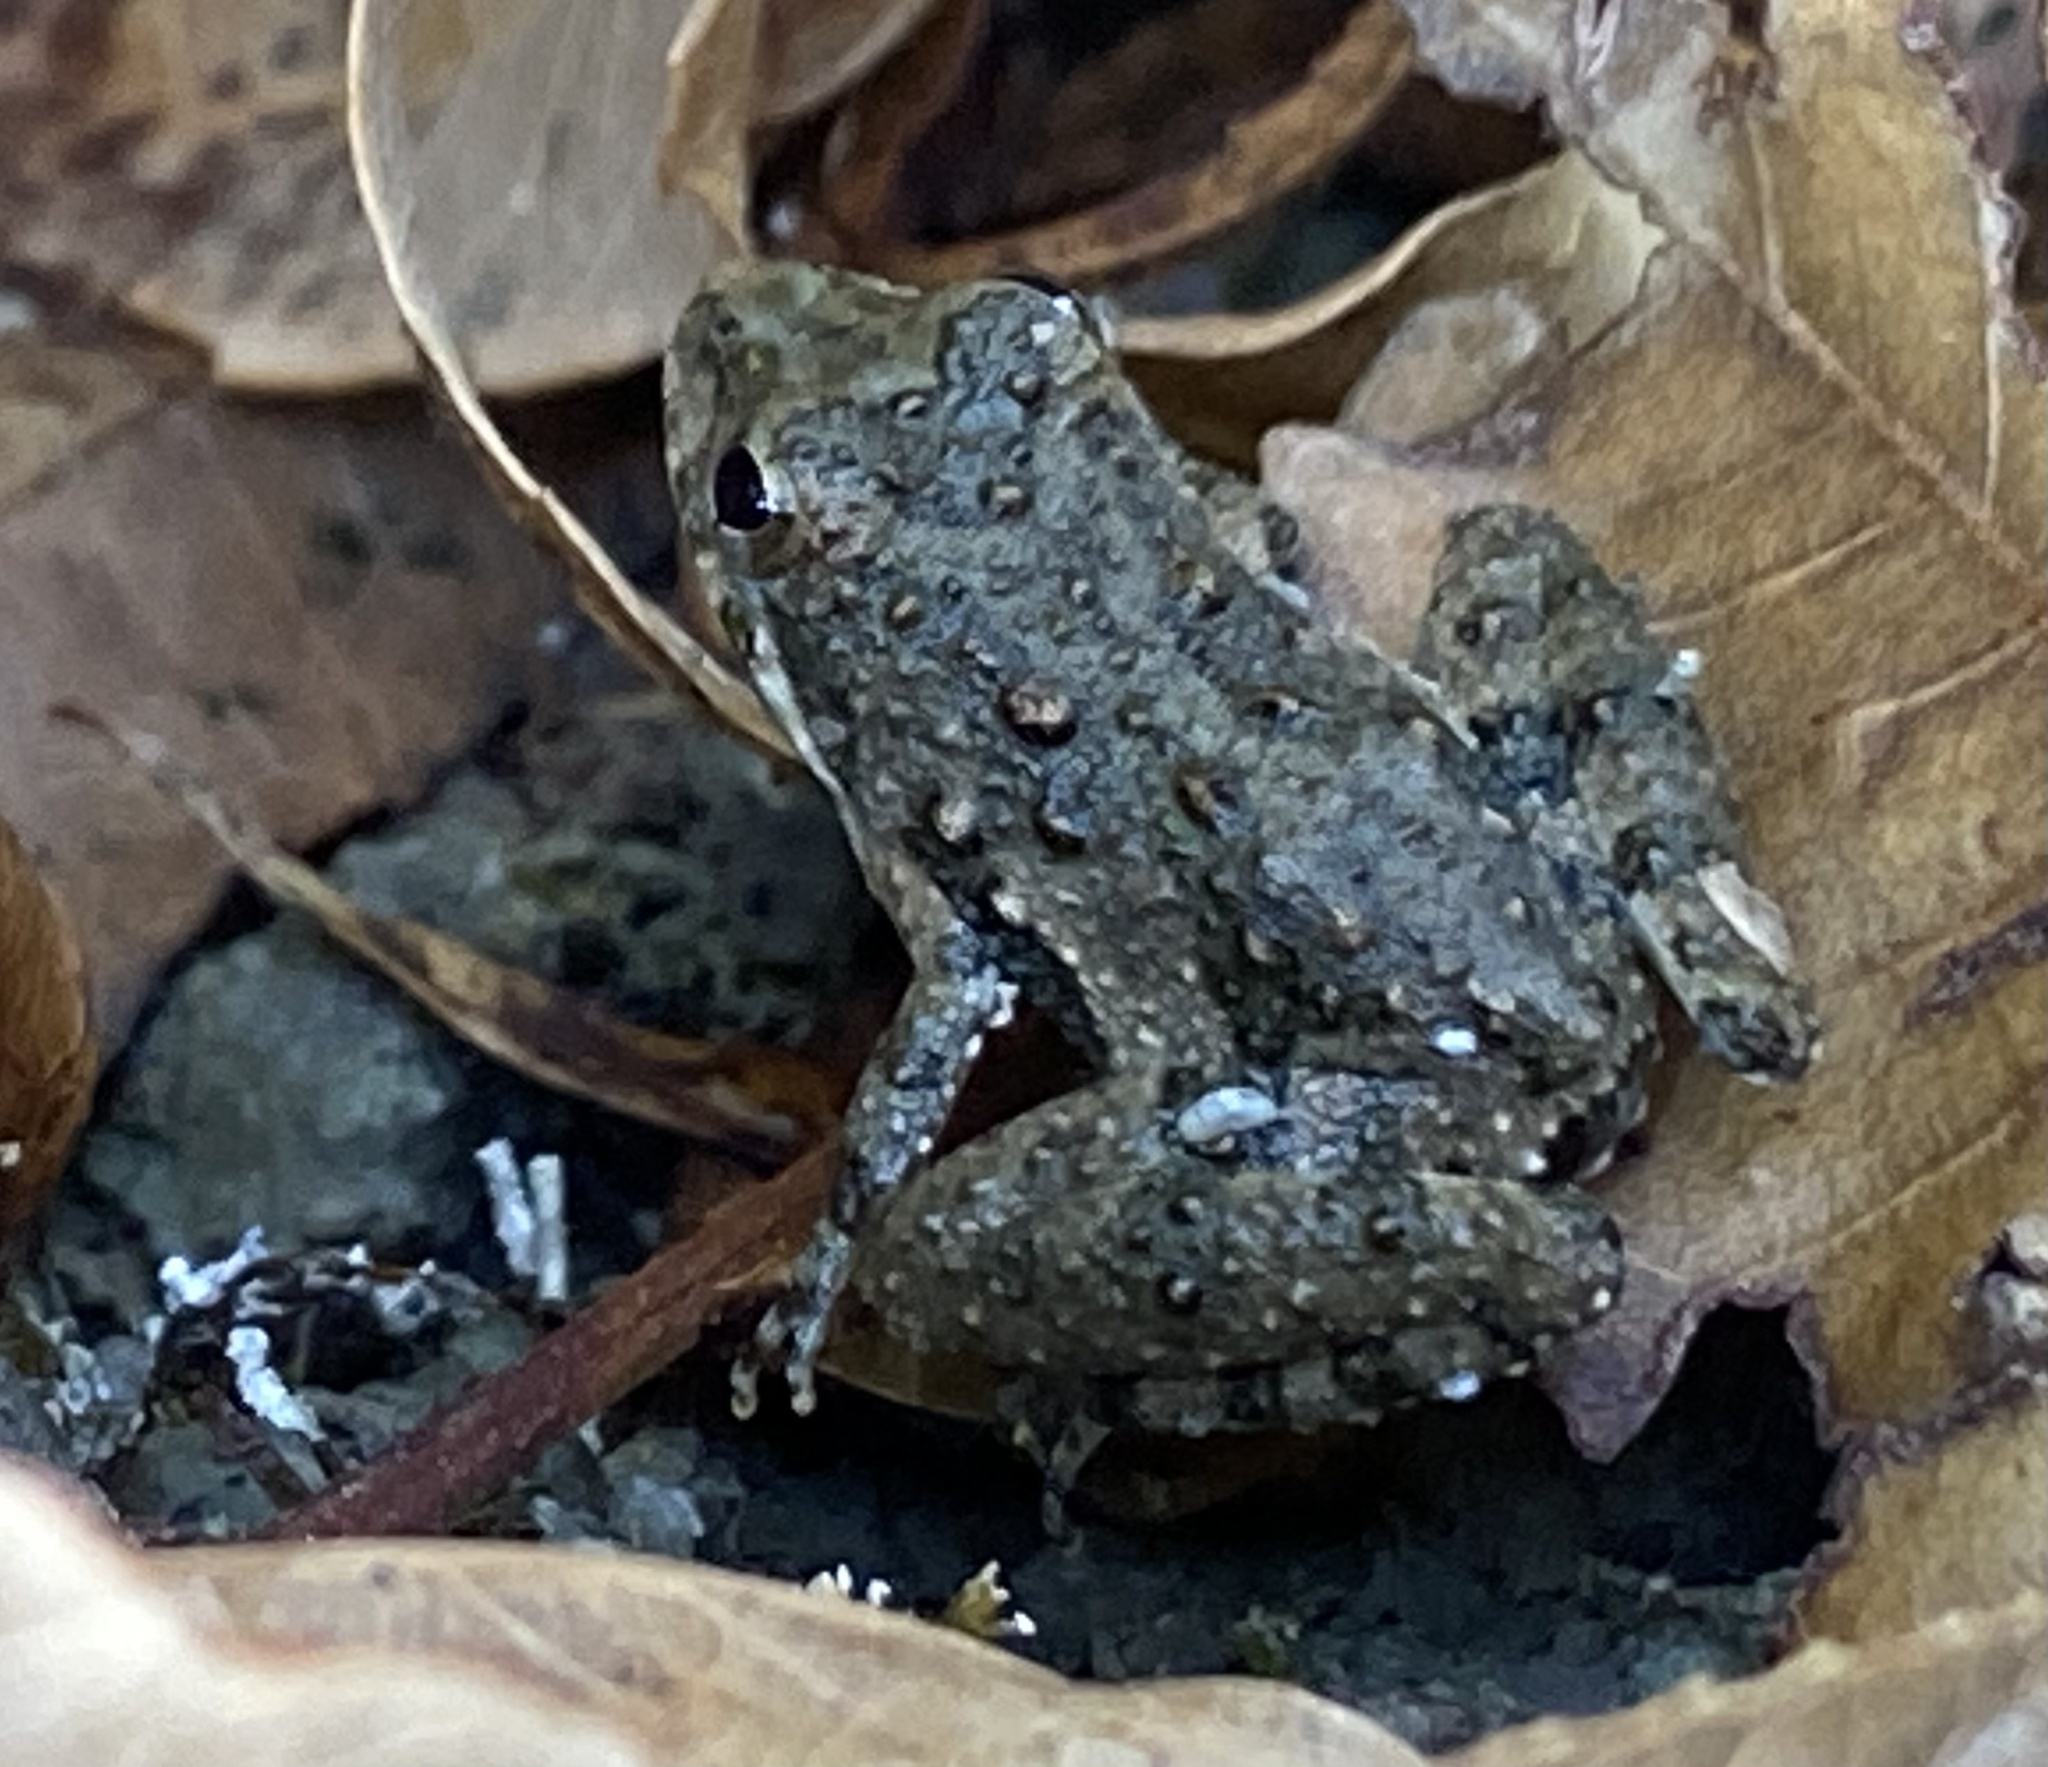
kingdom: Animalia
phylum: Chordata
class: Amphibia
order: Anura
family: Hylidae
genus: Acris
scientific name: Acris blanchardi
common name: Blanchard's cricket frog
